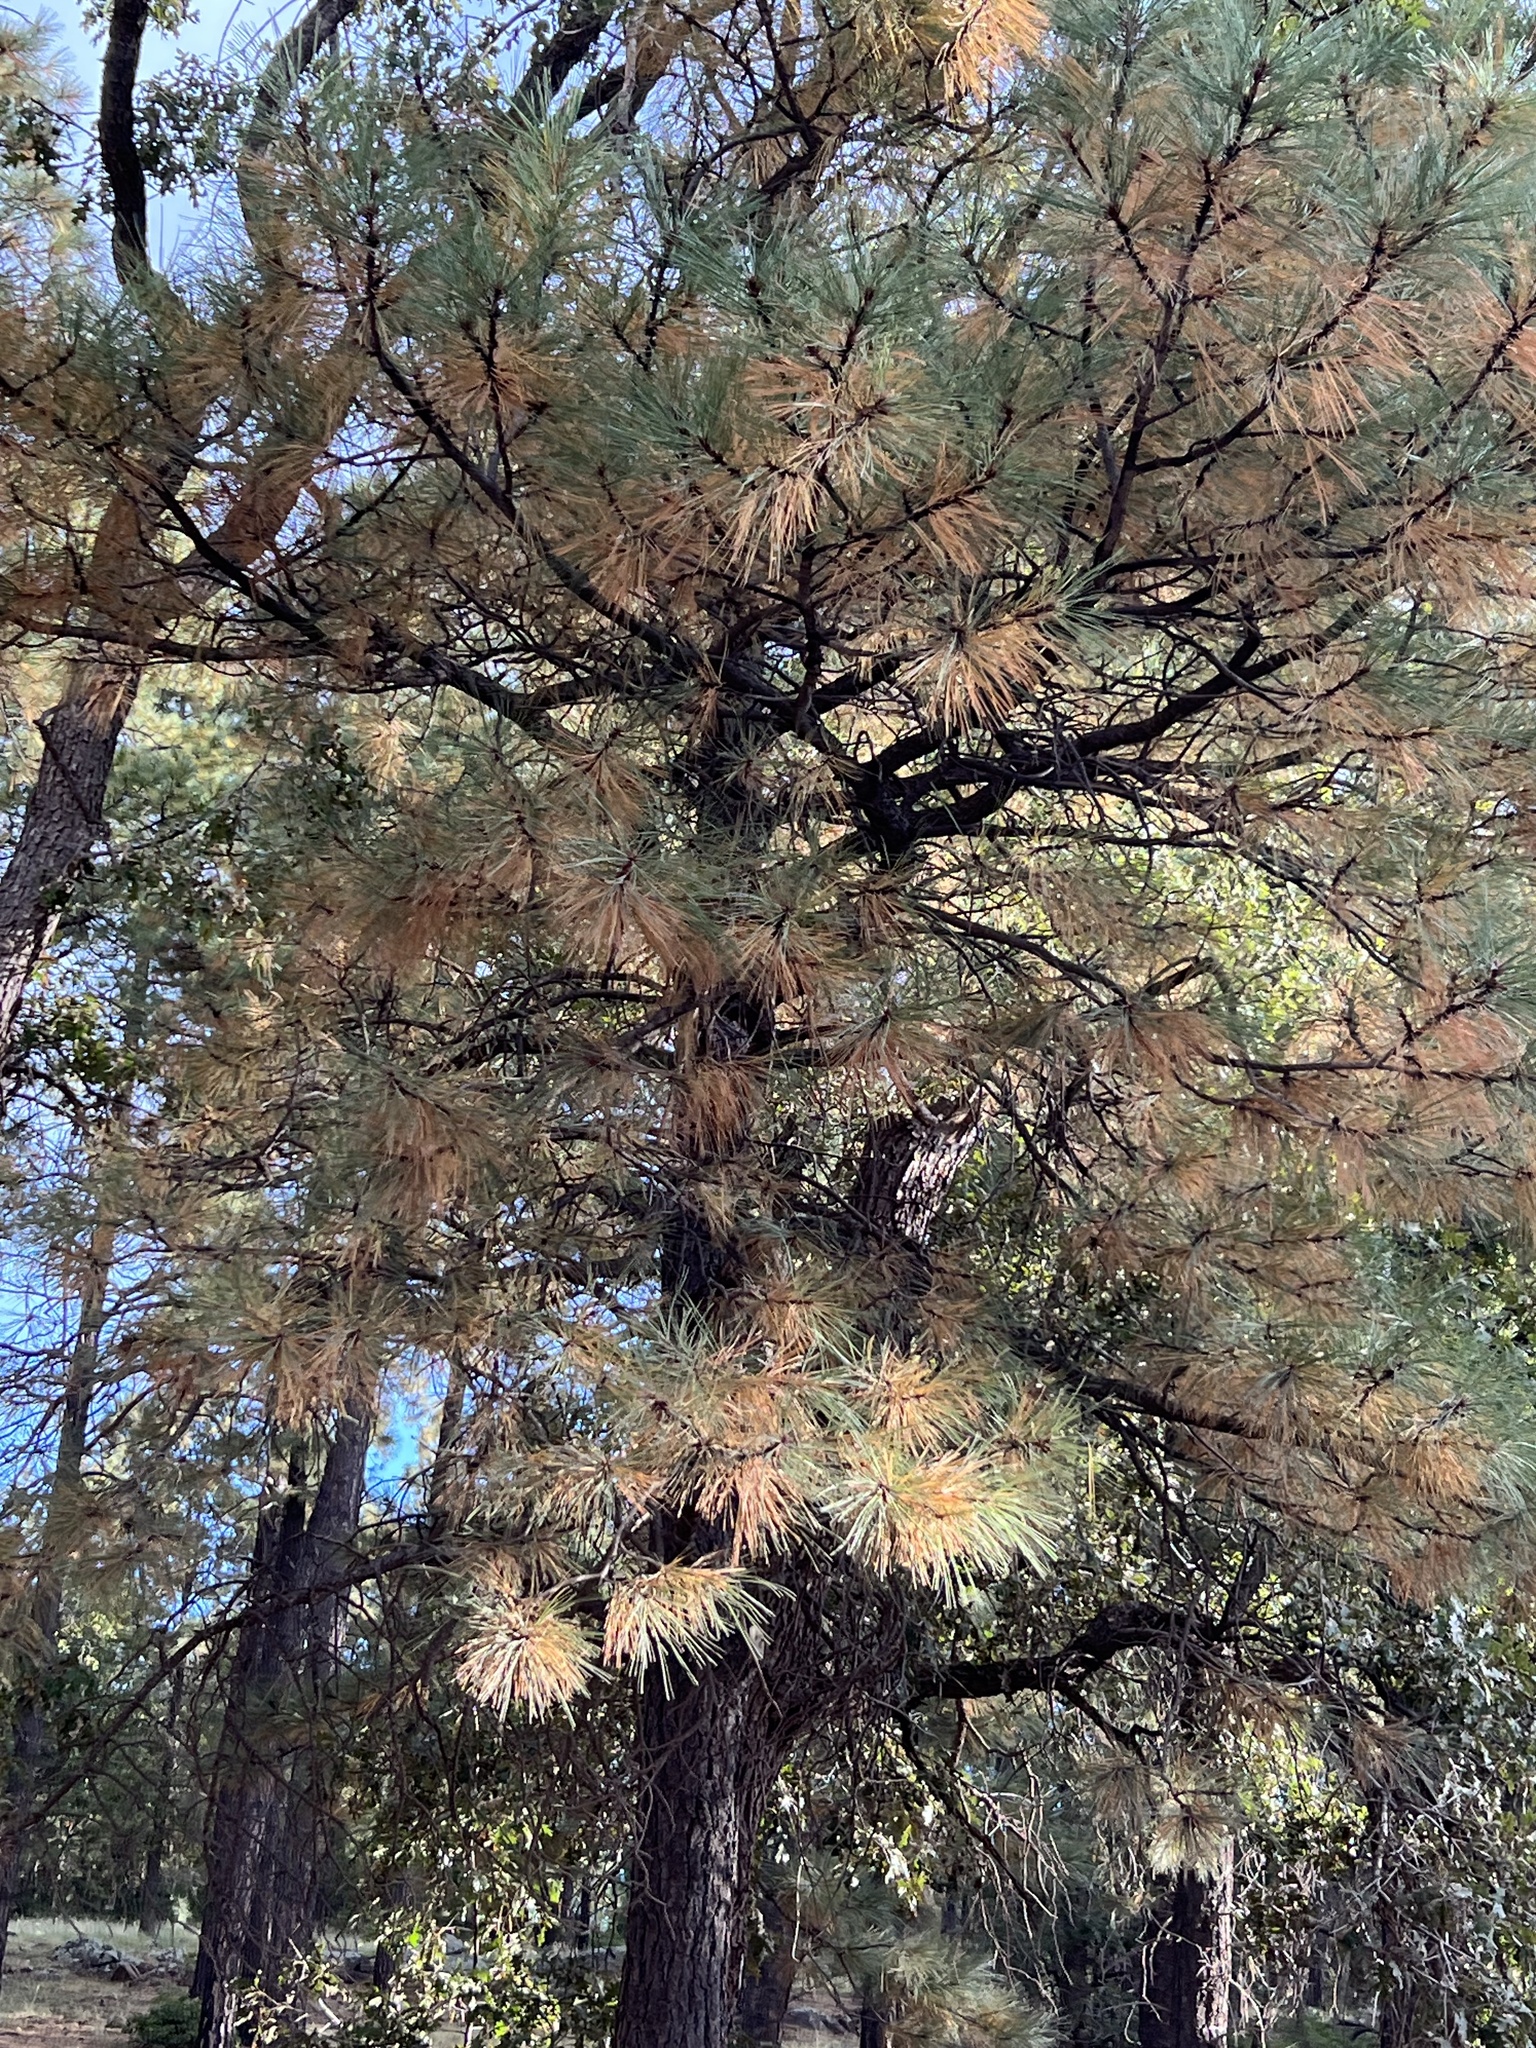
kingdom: Plantae
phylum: Tracheophyta
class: Pinopsida
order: Pinales
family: Pinaceae
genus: Pinus
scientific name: Pinus ponderosa
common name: Western yellow-pine
